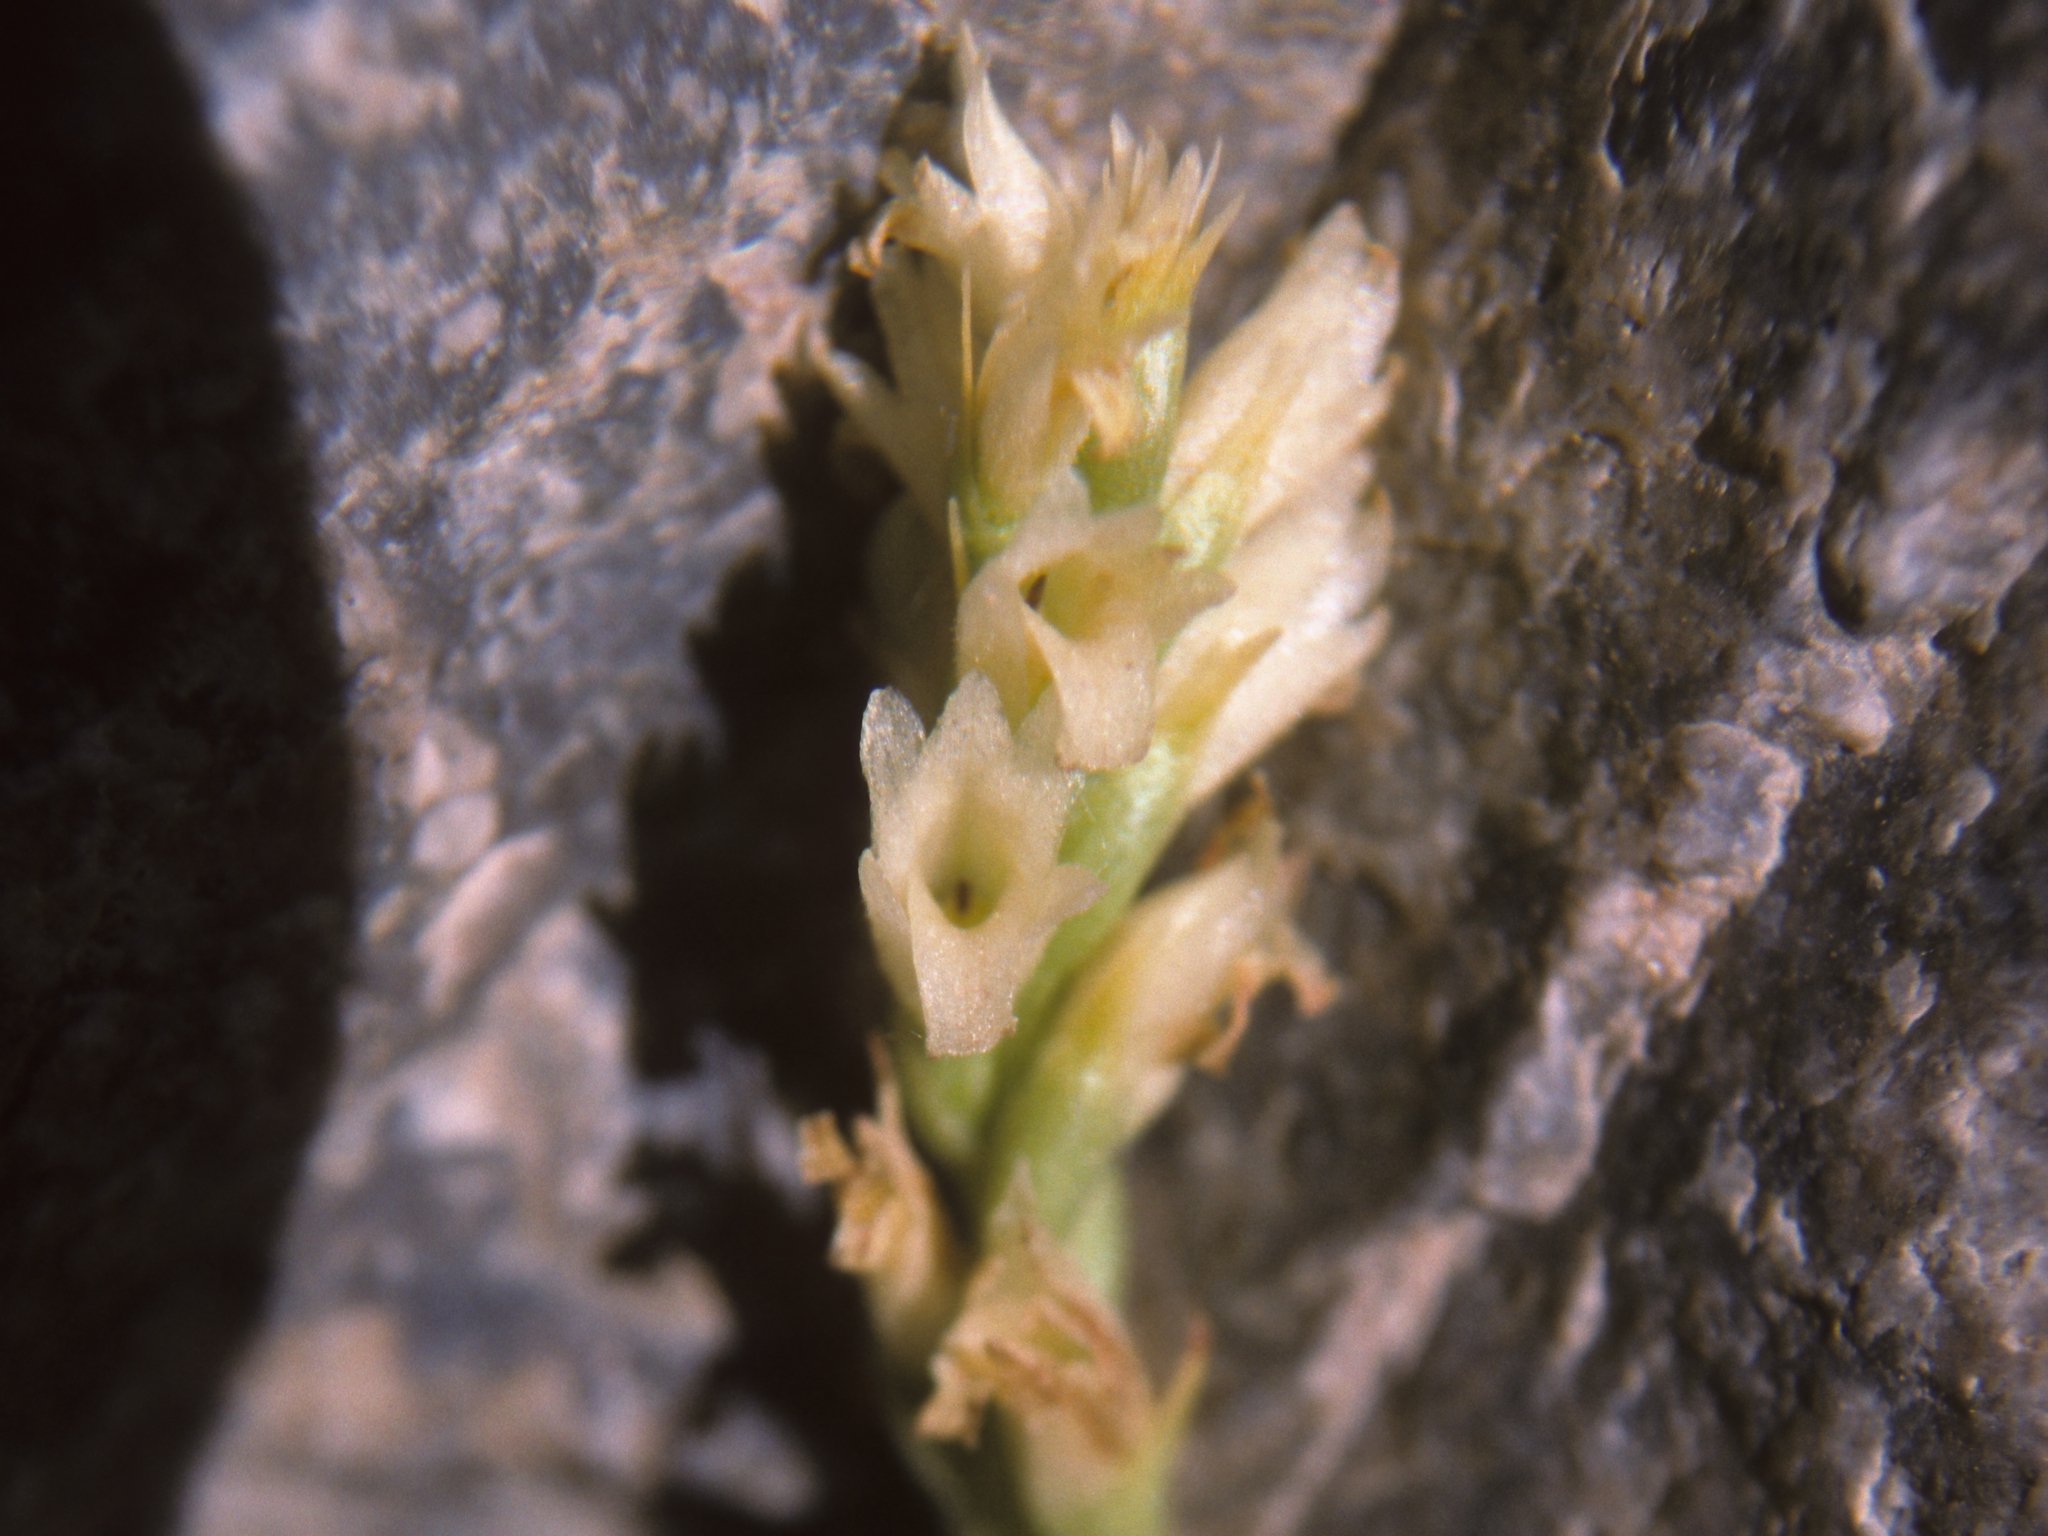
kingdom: Plantae
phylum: Tracheophyta
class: Liliopsida
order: Asparagales
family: Orchidaceae
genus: Spiranthes
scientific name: Spiranthes stellata
